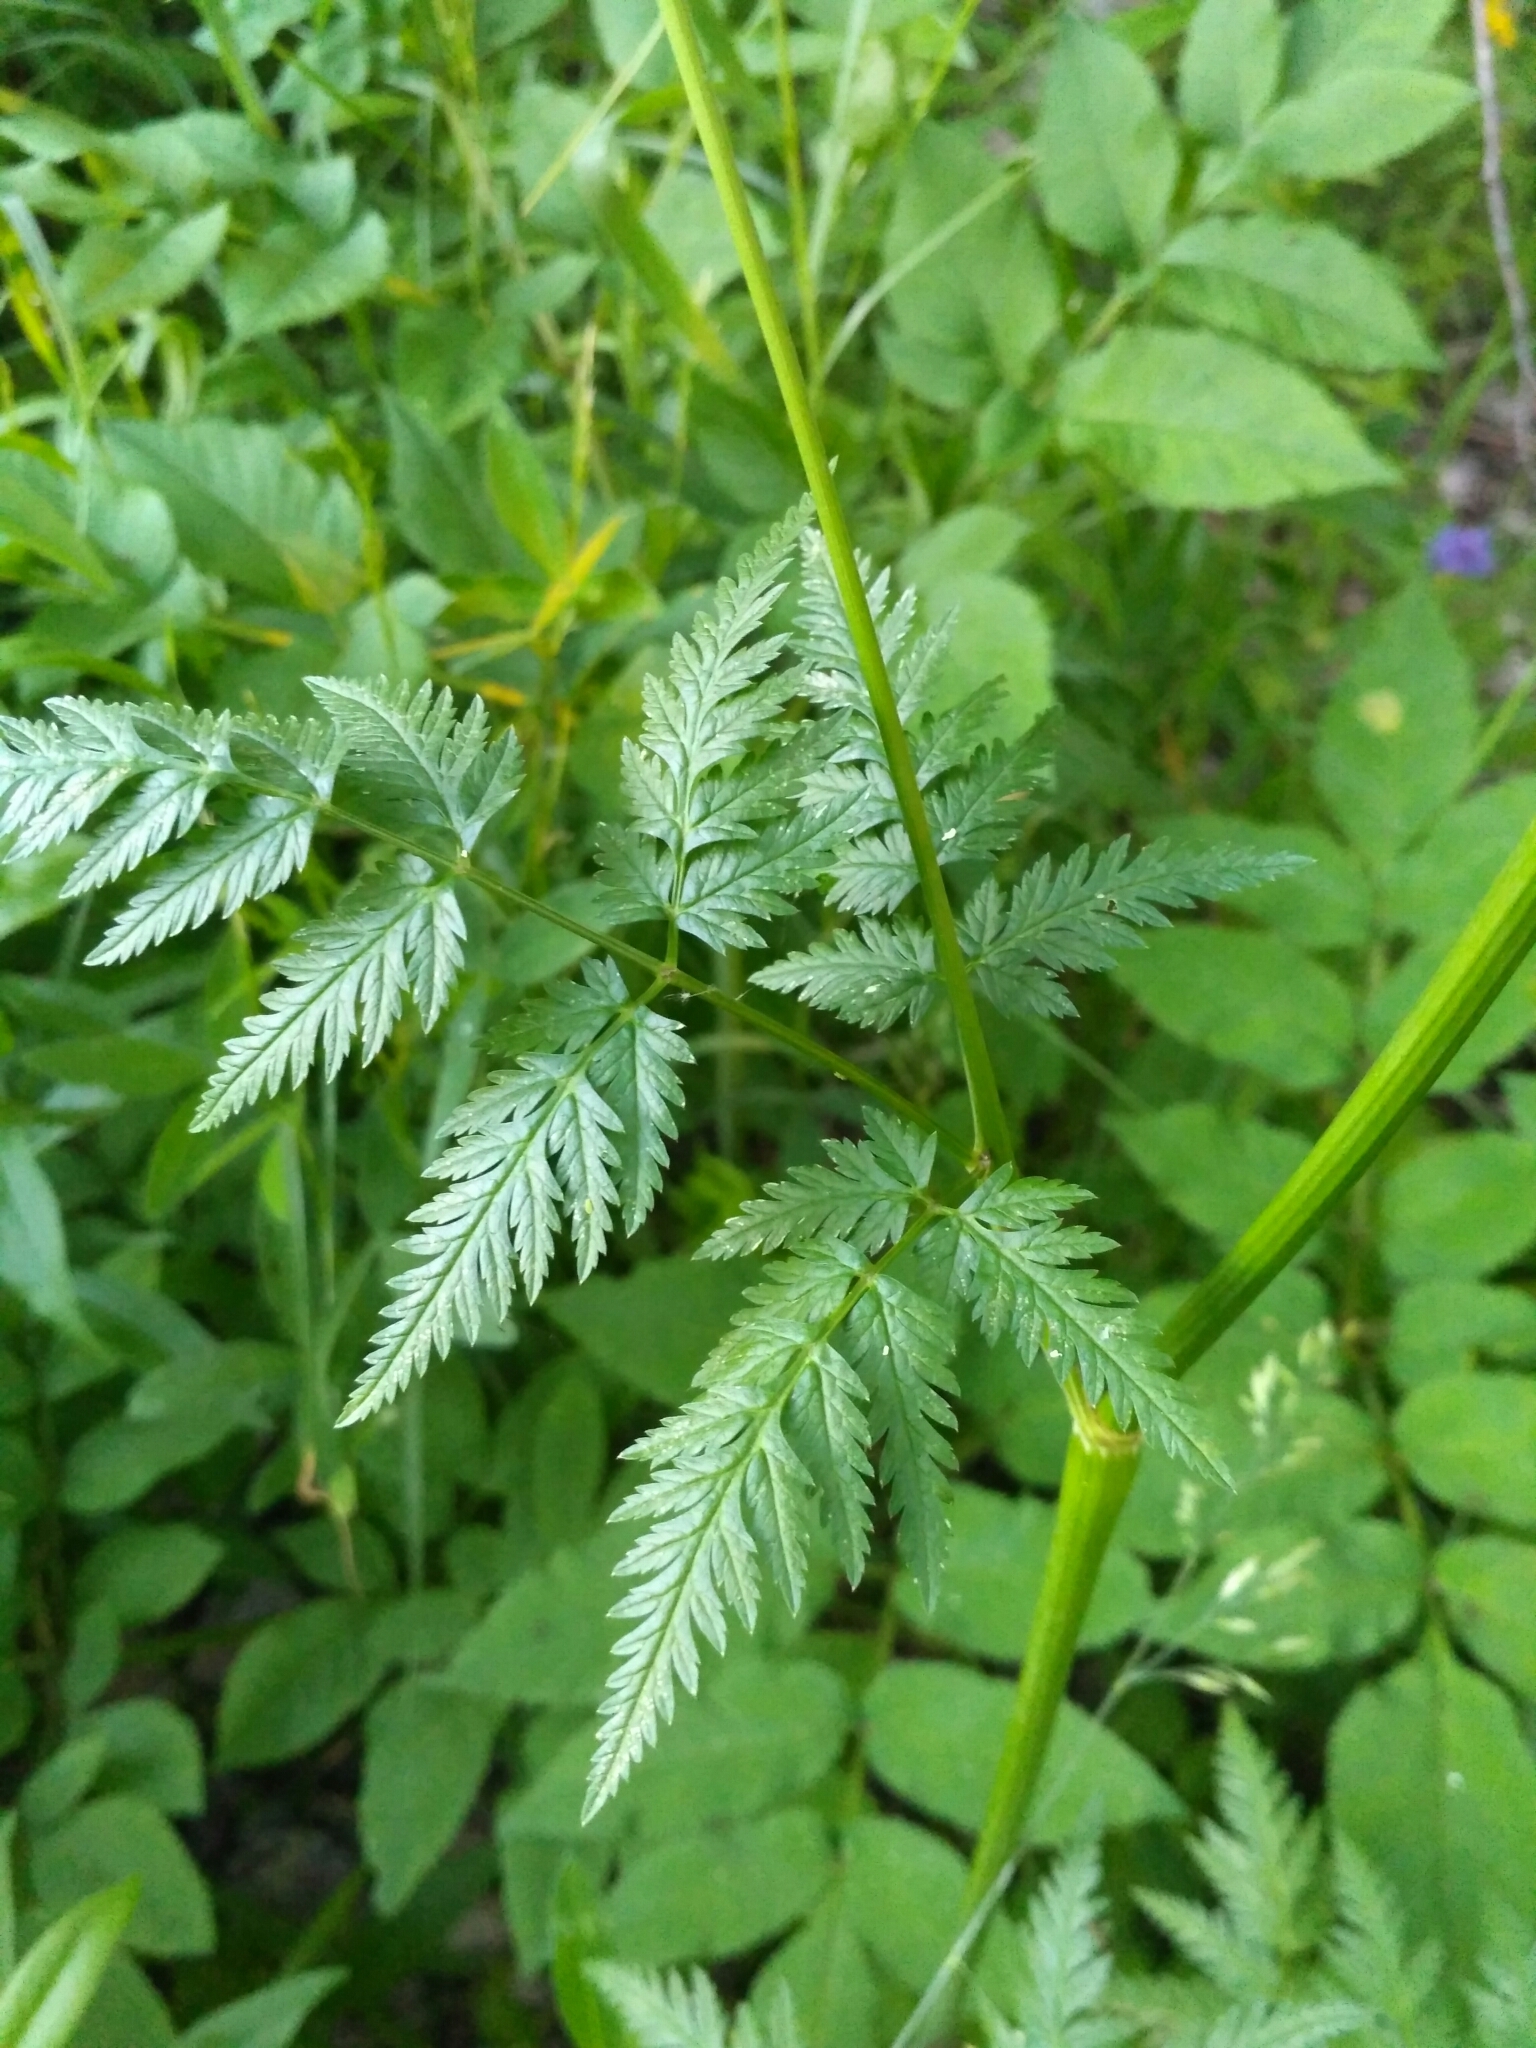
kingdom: Plantae
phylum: Tracheophyta
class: Magnoliopsida
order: Apiales
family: Apiaceae
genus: Anthriscus
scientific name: Anthriscus sylvestris
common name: Cow parsley
